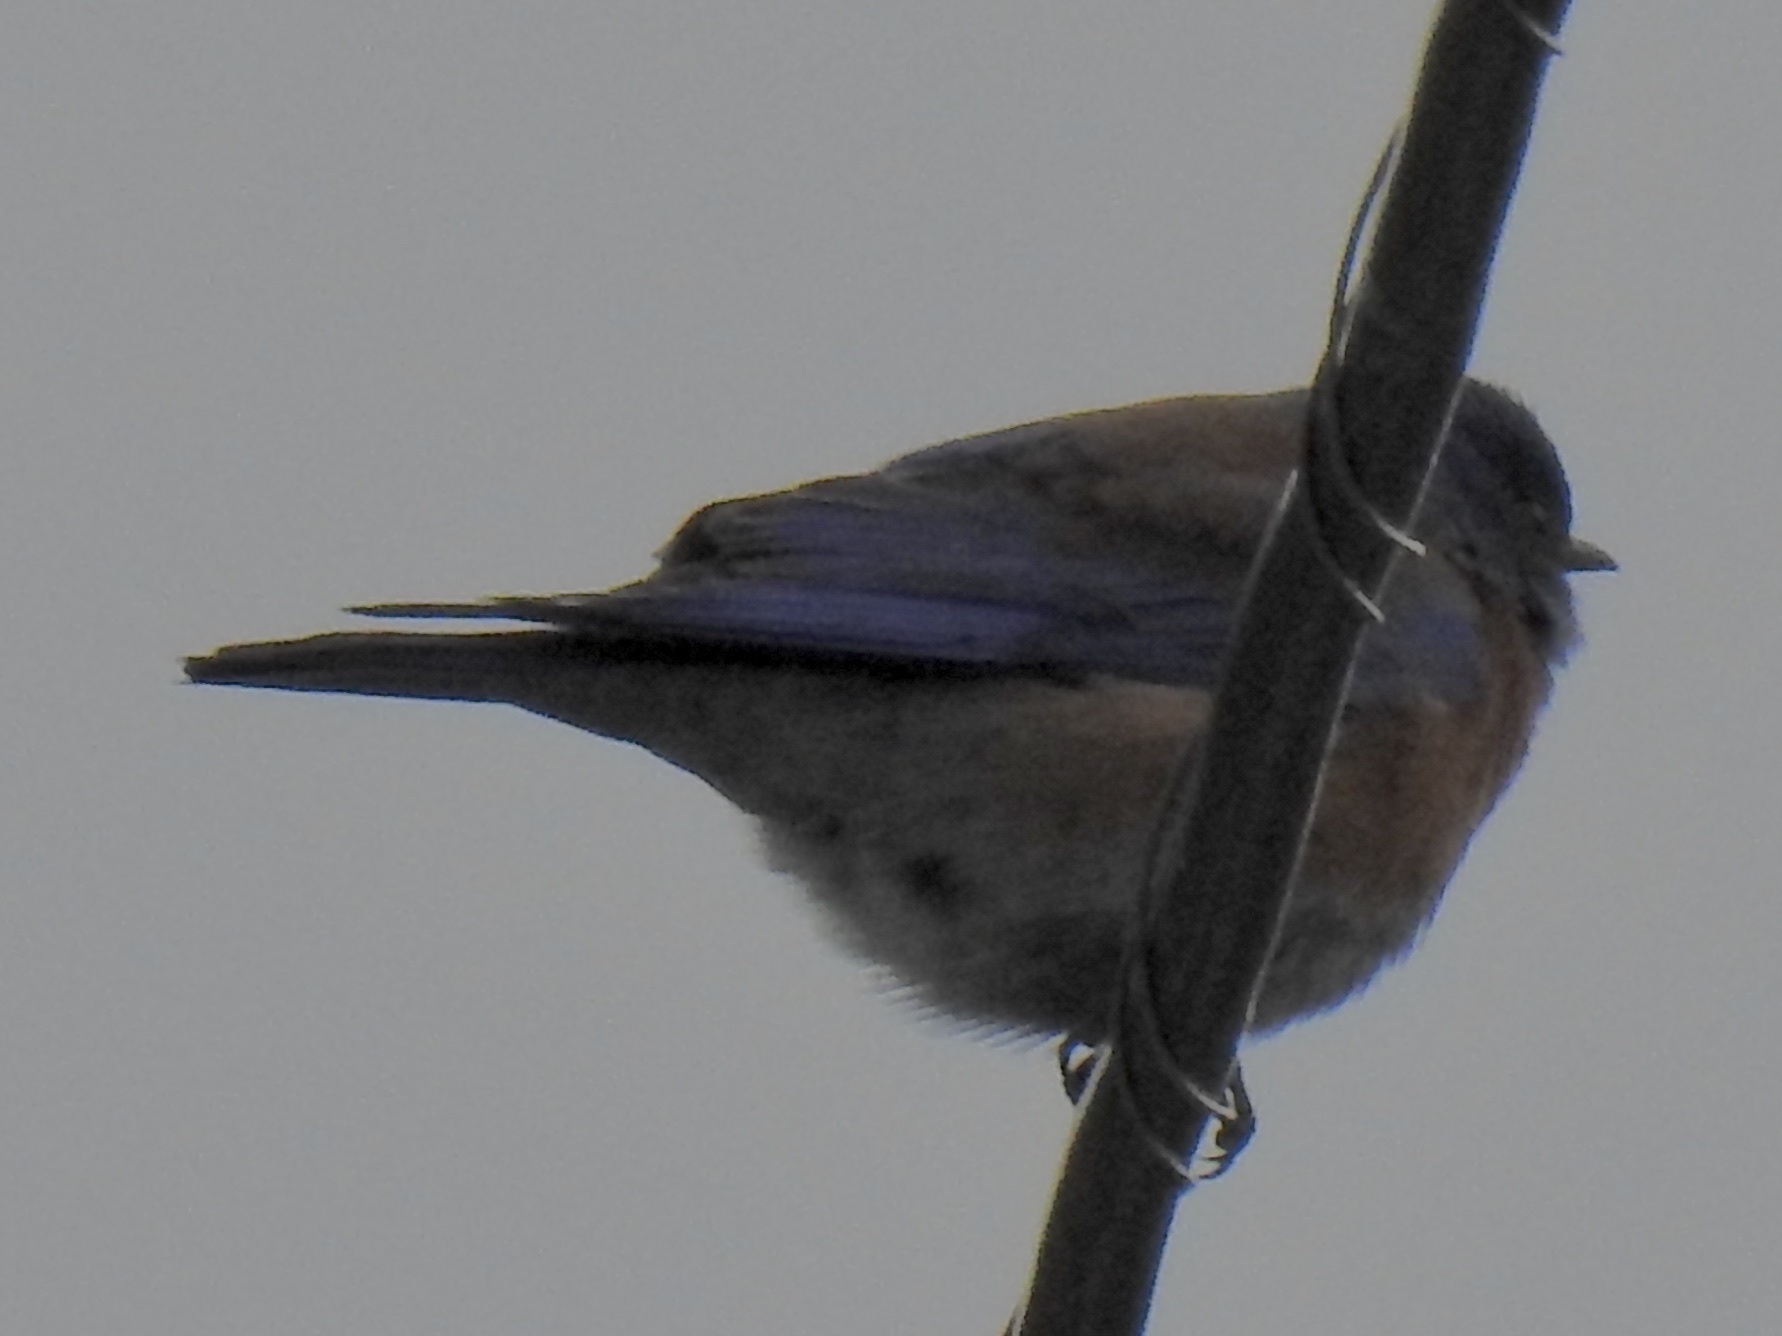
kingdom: Animalia
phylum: Chordata
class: Aves
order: Passeriformes
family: Turdidae
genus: Sialia
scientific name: Sialia mexicana
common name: Western bluebird
